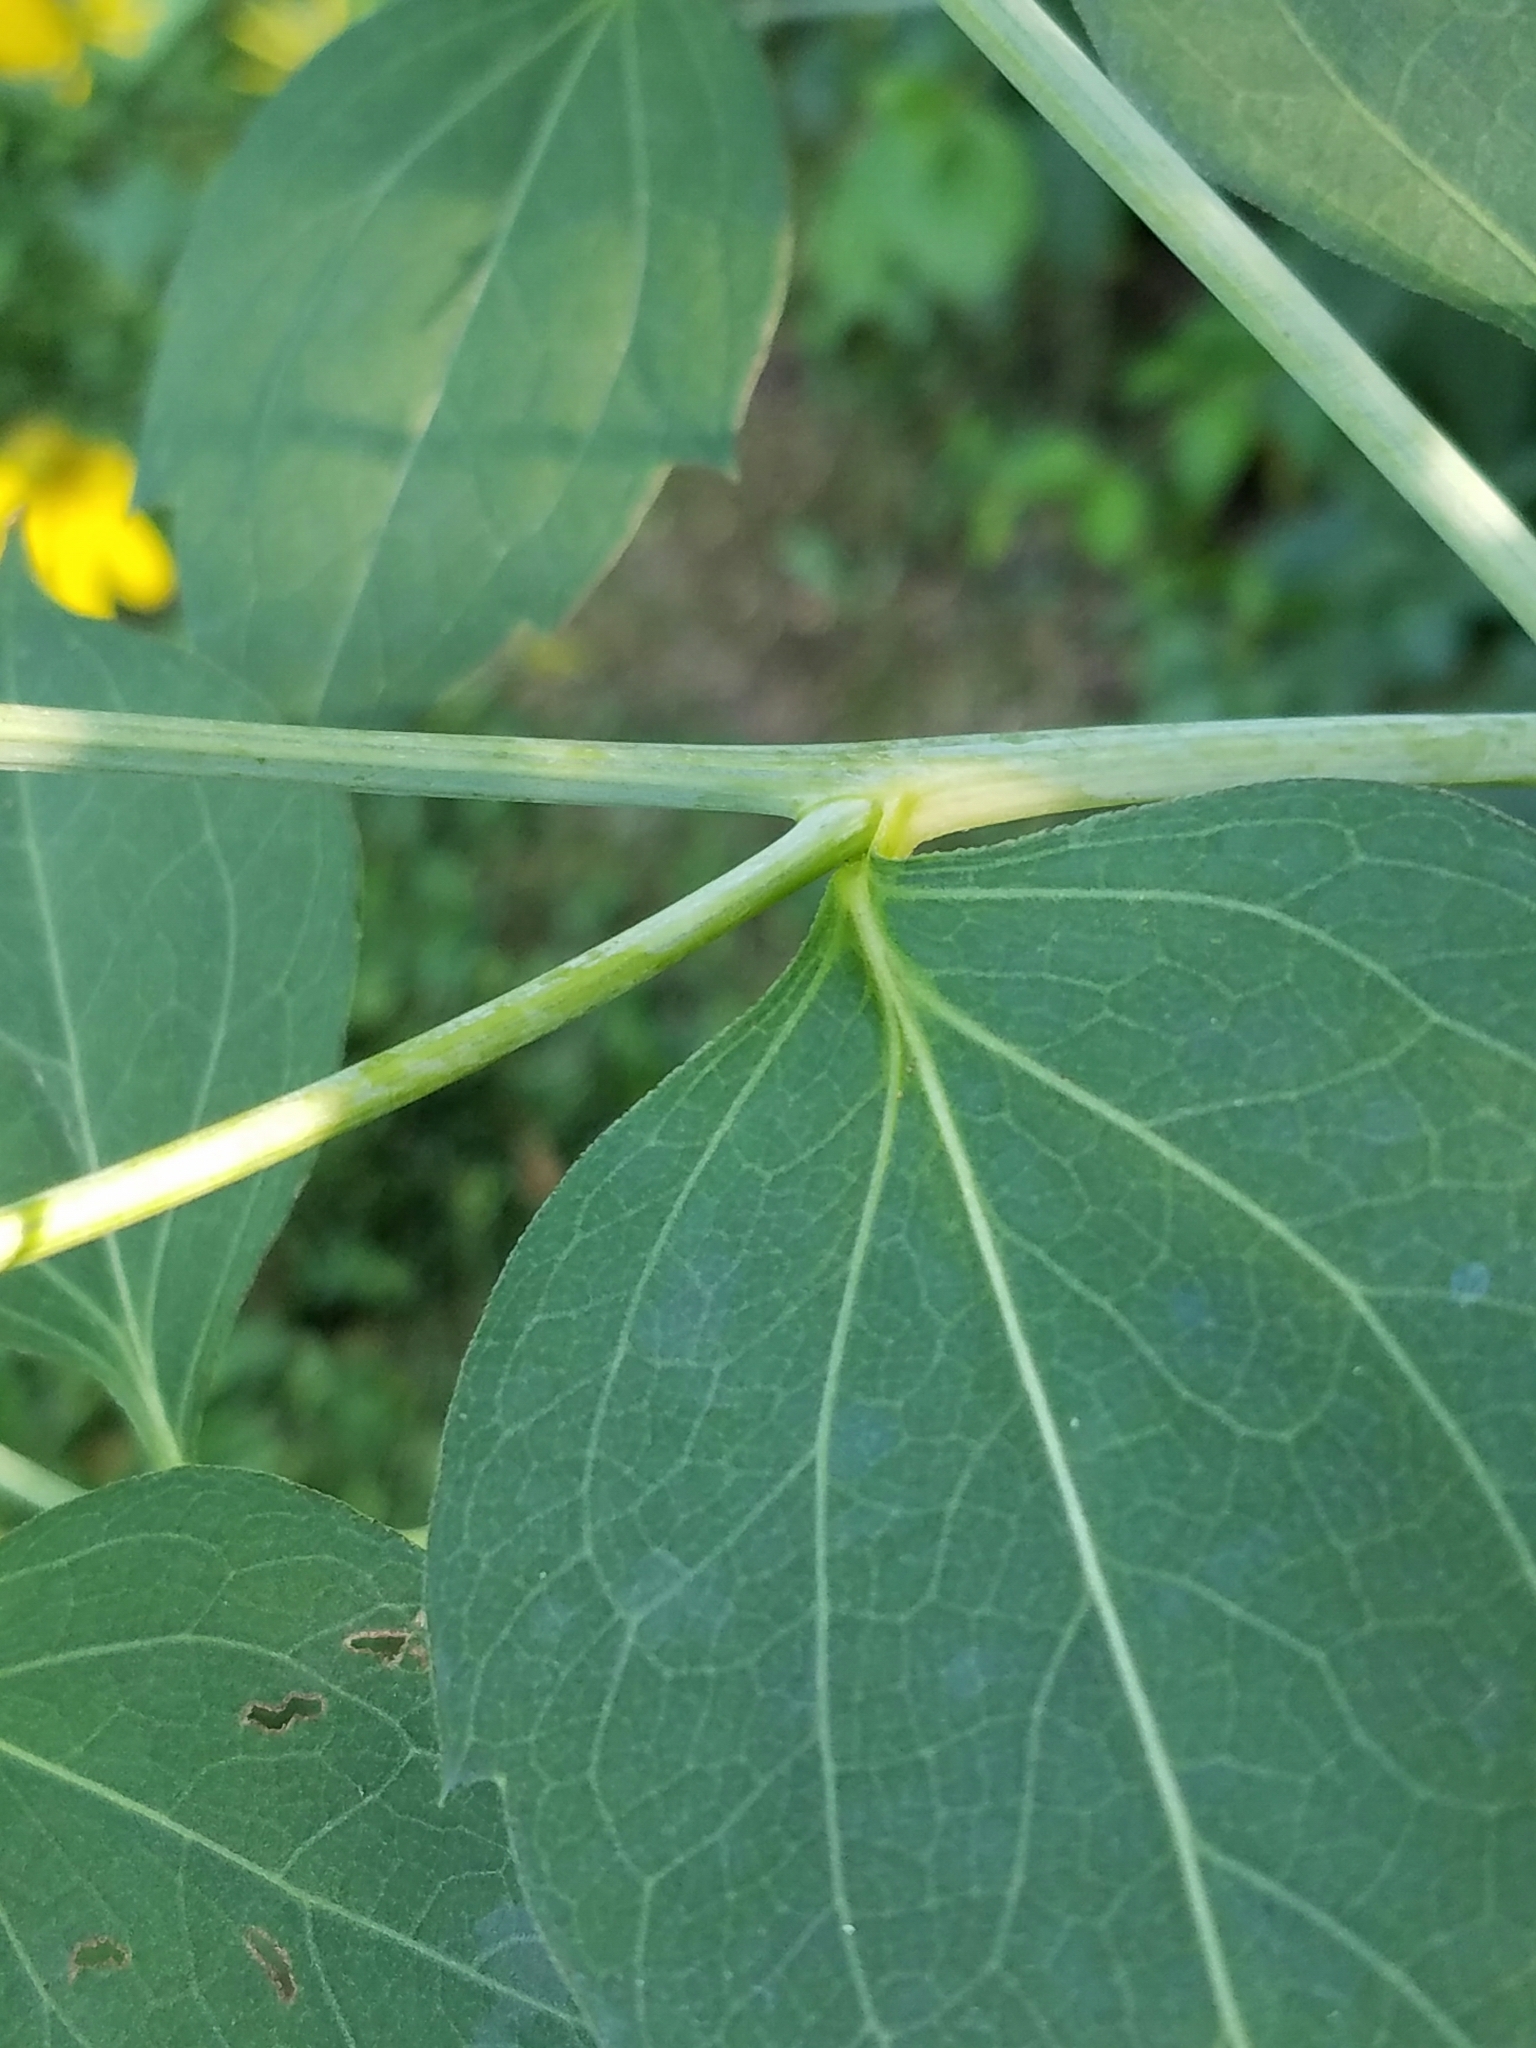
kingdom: Plantae
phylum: Tracheophyta
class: Magnoliopsida
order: Asterales
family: Asteraceae
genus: Rudbeckia
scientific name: Rudbeckia laciniata
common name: Coneflower
